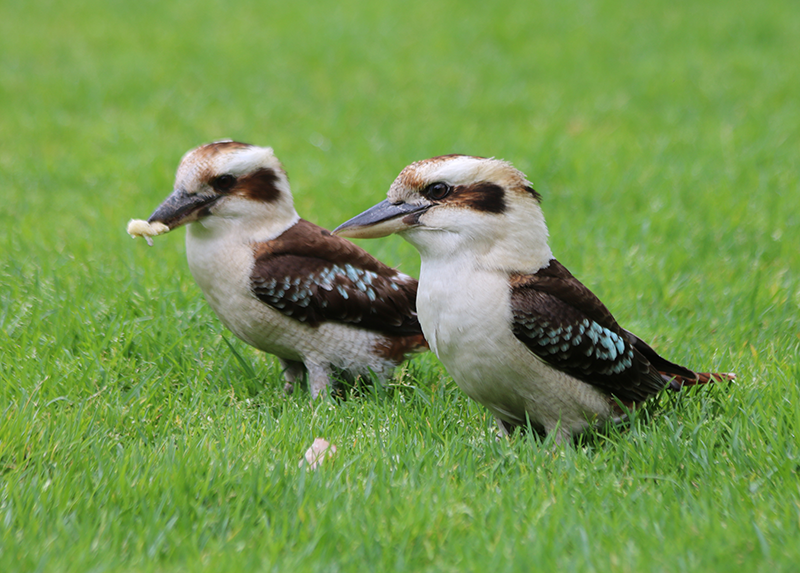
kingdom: Animalia
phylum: Chordata
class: Aves
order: Coraciiformes
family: Alcedinidae
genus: Dacelo
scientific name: Dacelo novaeguineae
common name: Laughing kookaburra
